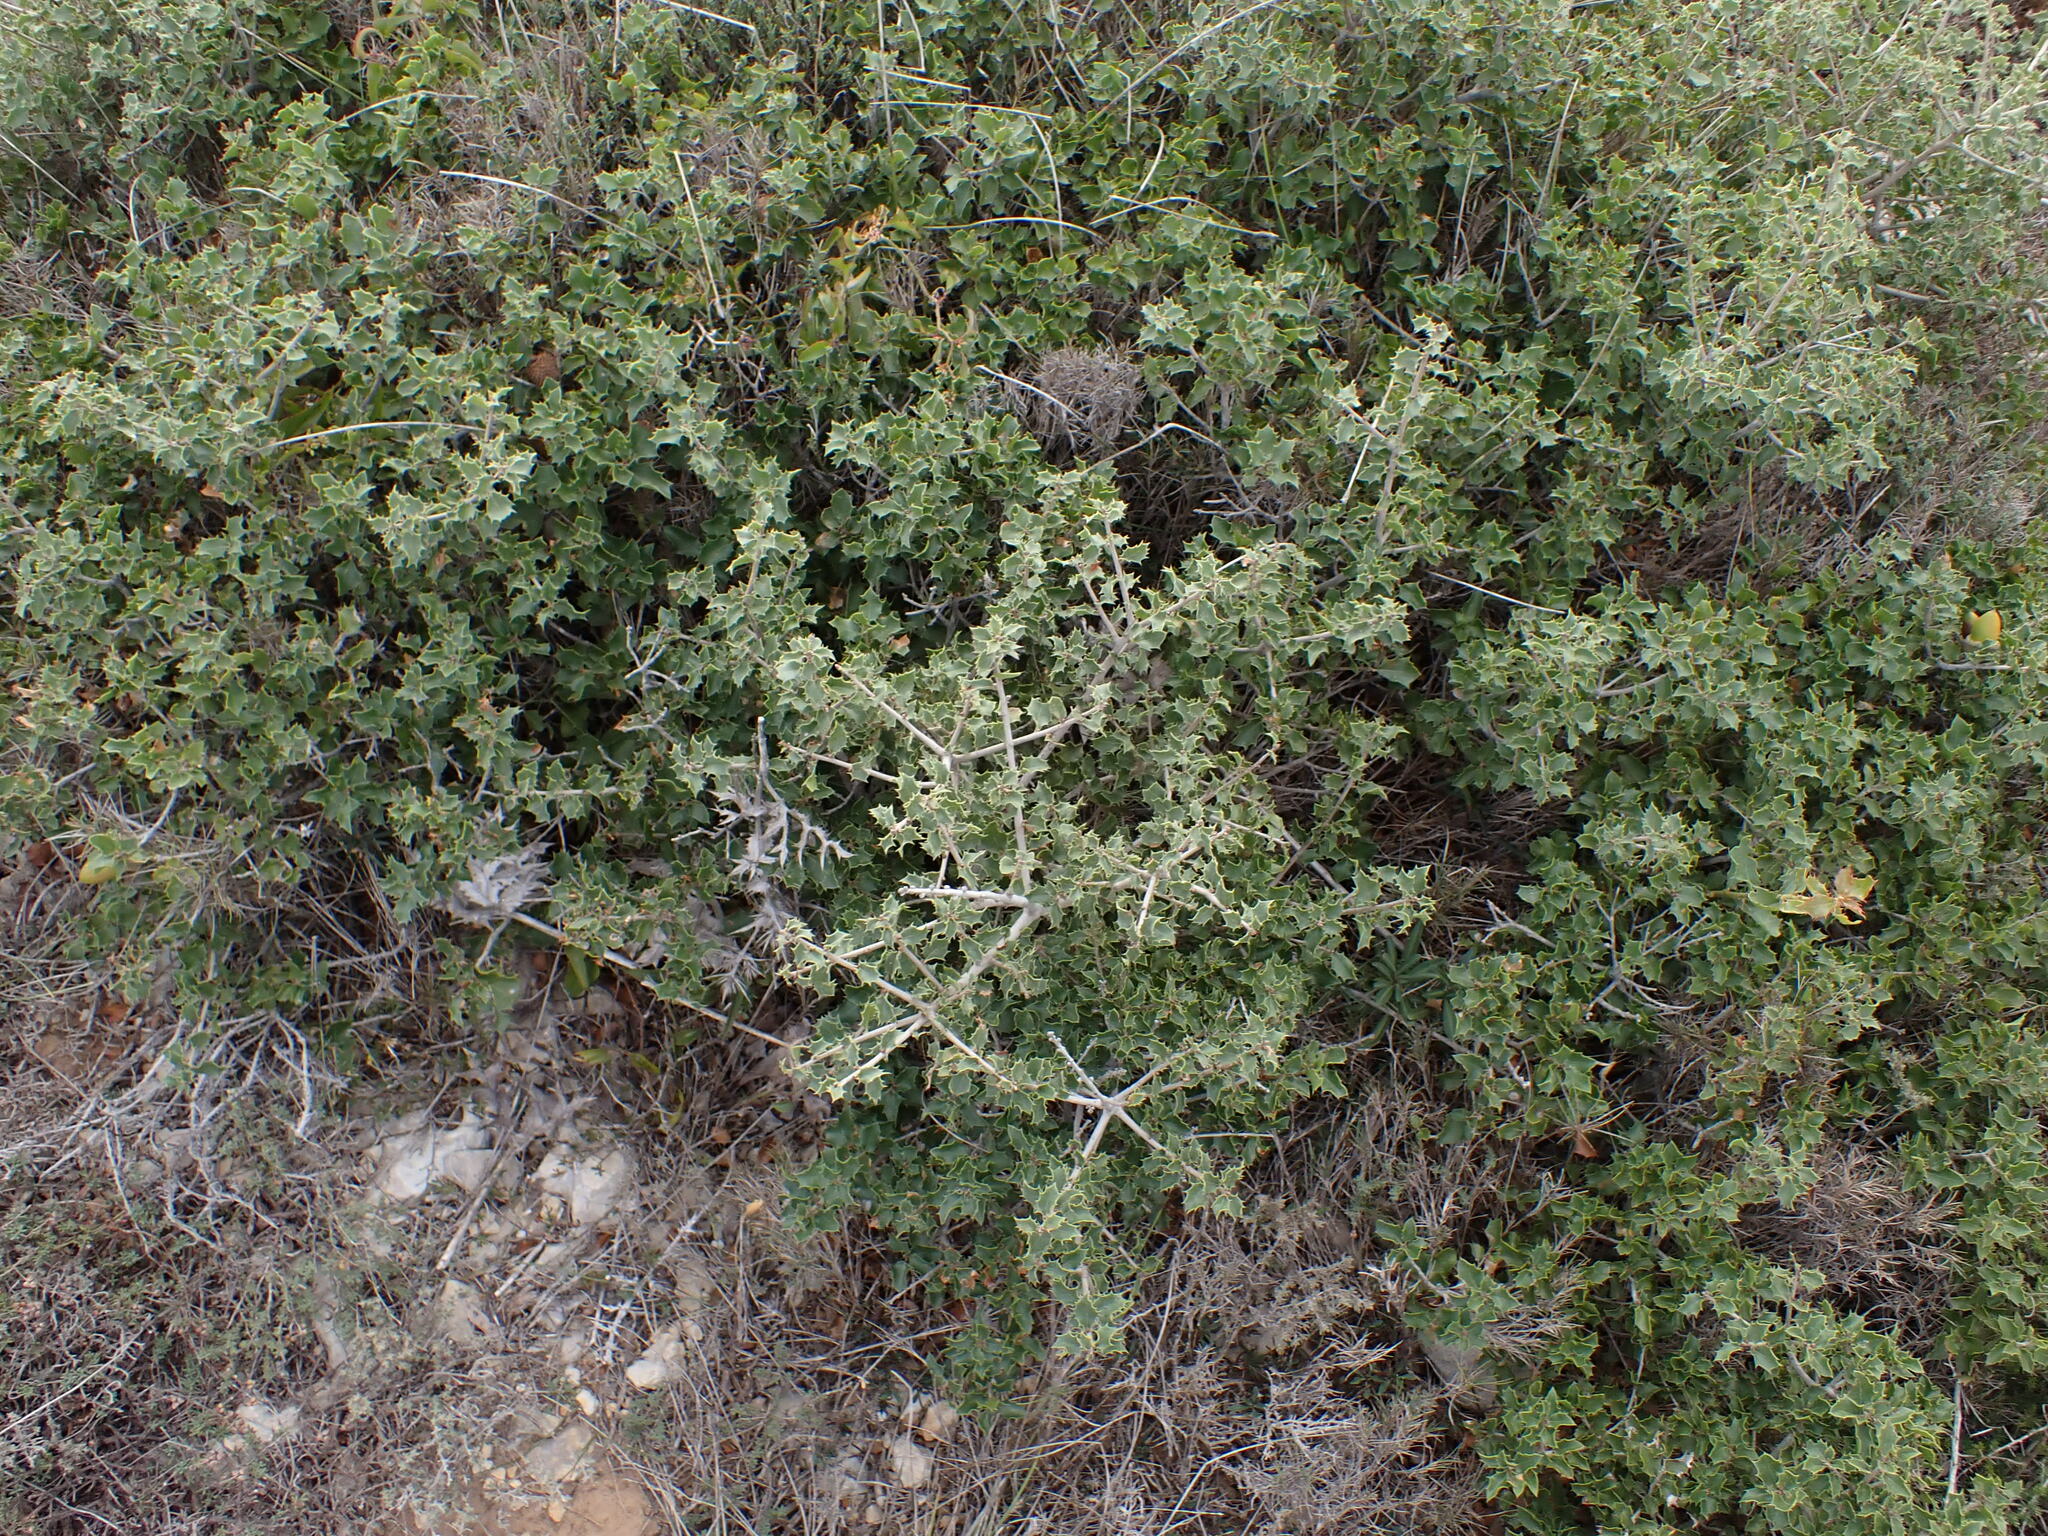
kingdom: Plantae
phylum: Tracheophyta
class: Magnoliopsida
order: Fagales
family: Fagaceae
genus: Quercus
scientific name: Quercus coccifera
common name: Kermes oak
